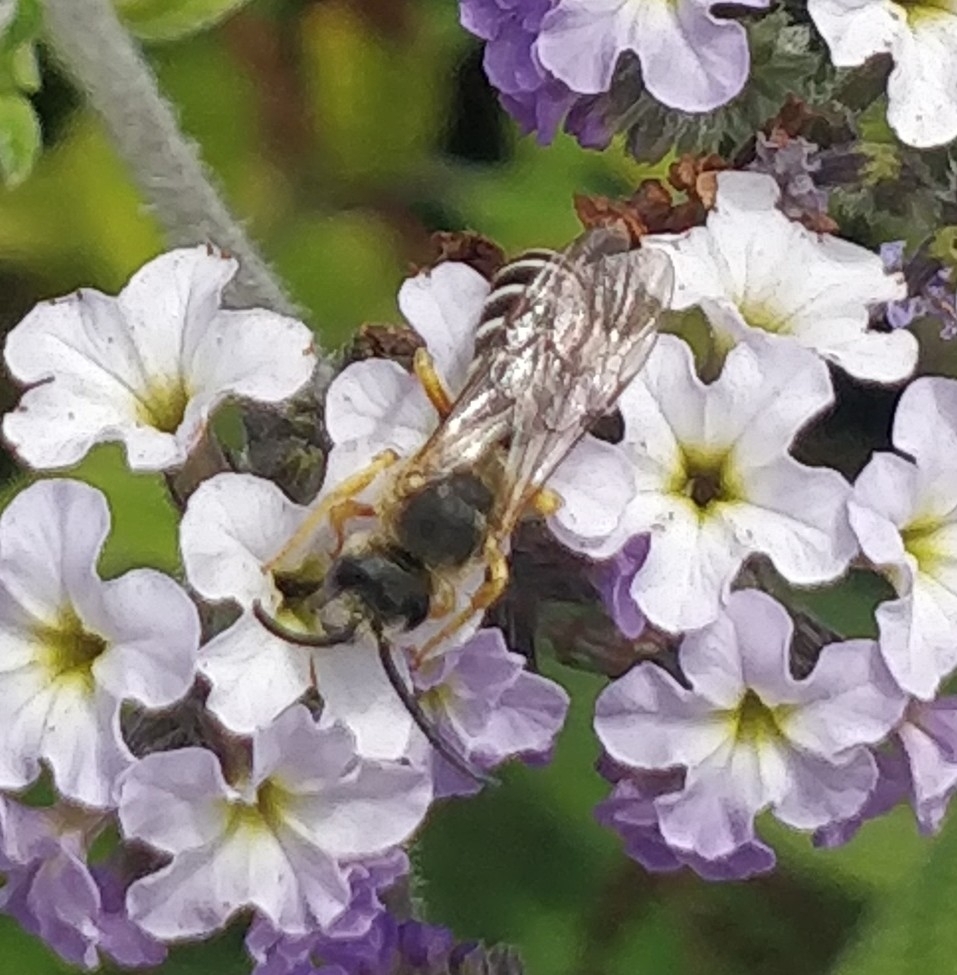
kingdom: Animalia
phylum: Arthropoda
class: Insecta
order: Hymenoptera
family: Halictidae
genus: Halictus
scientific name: Halictus fulvipes
